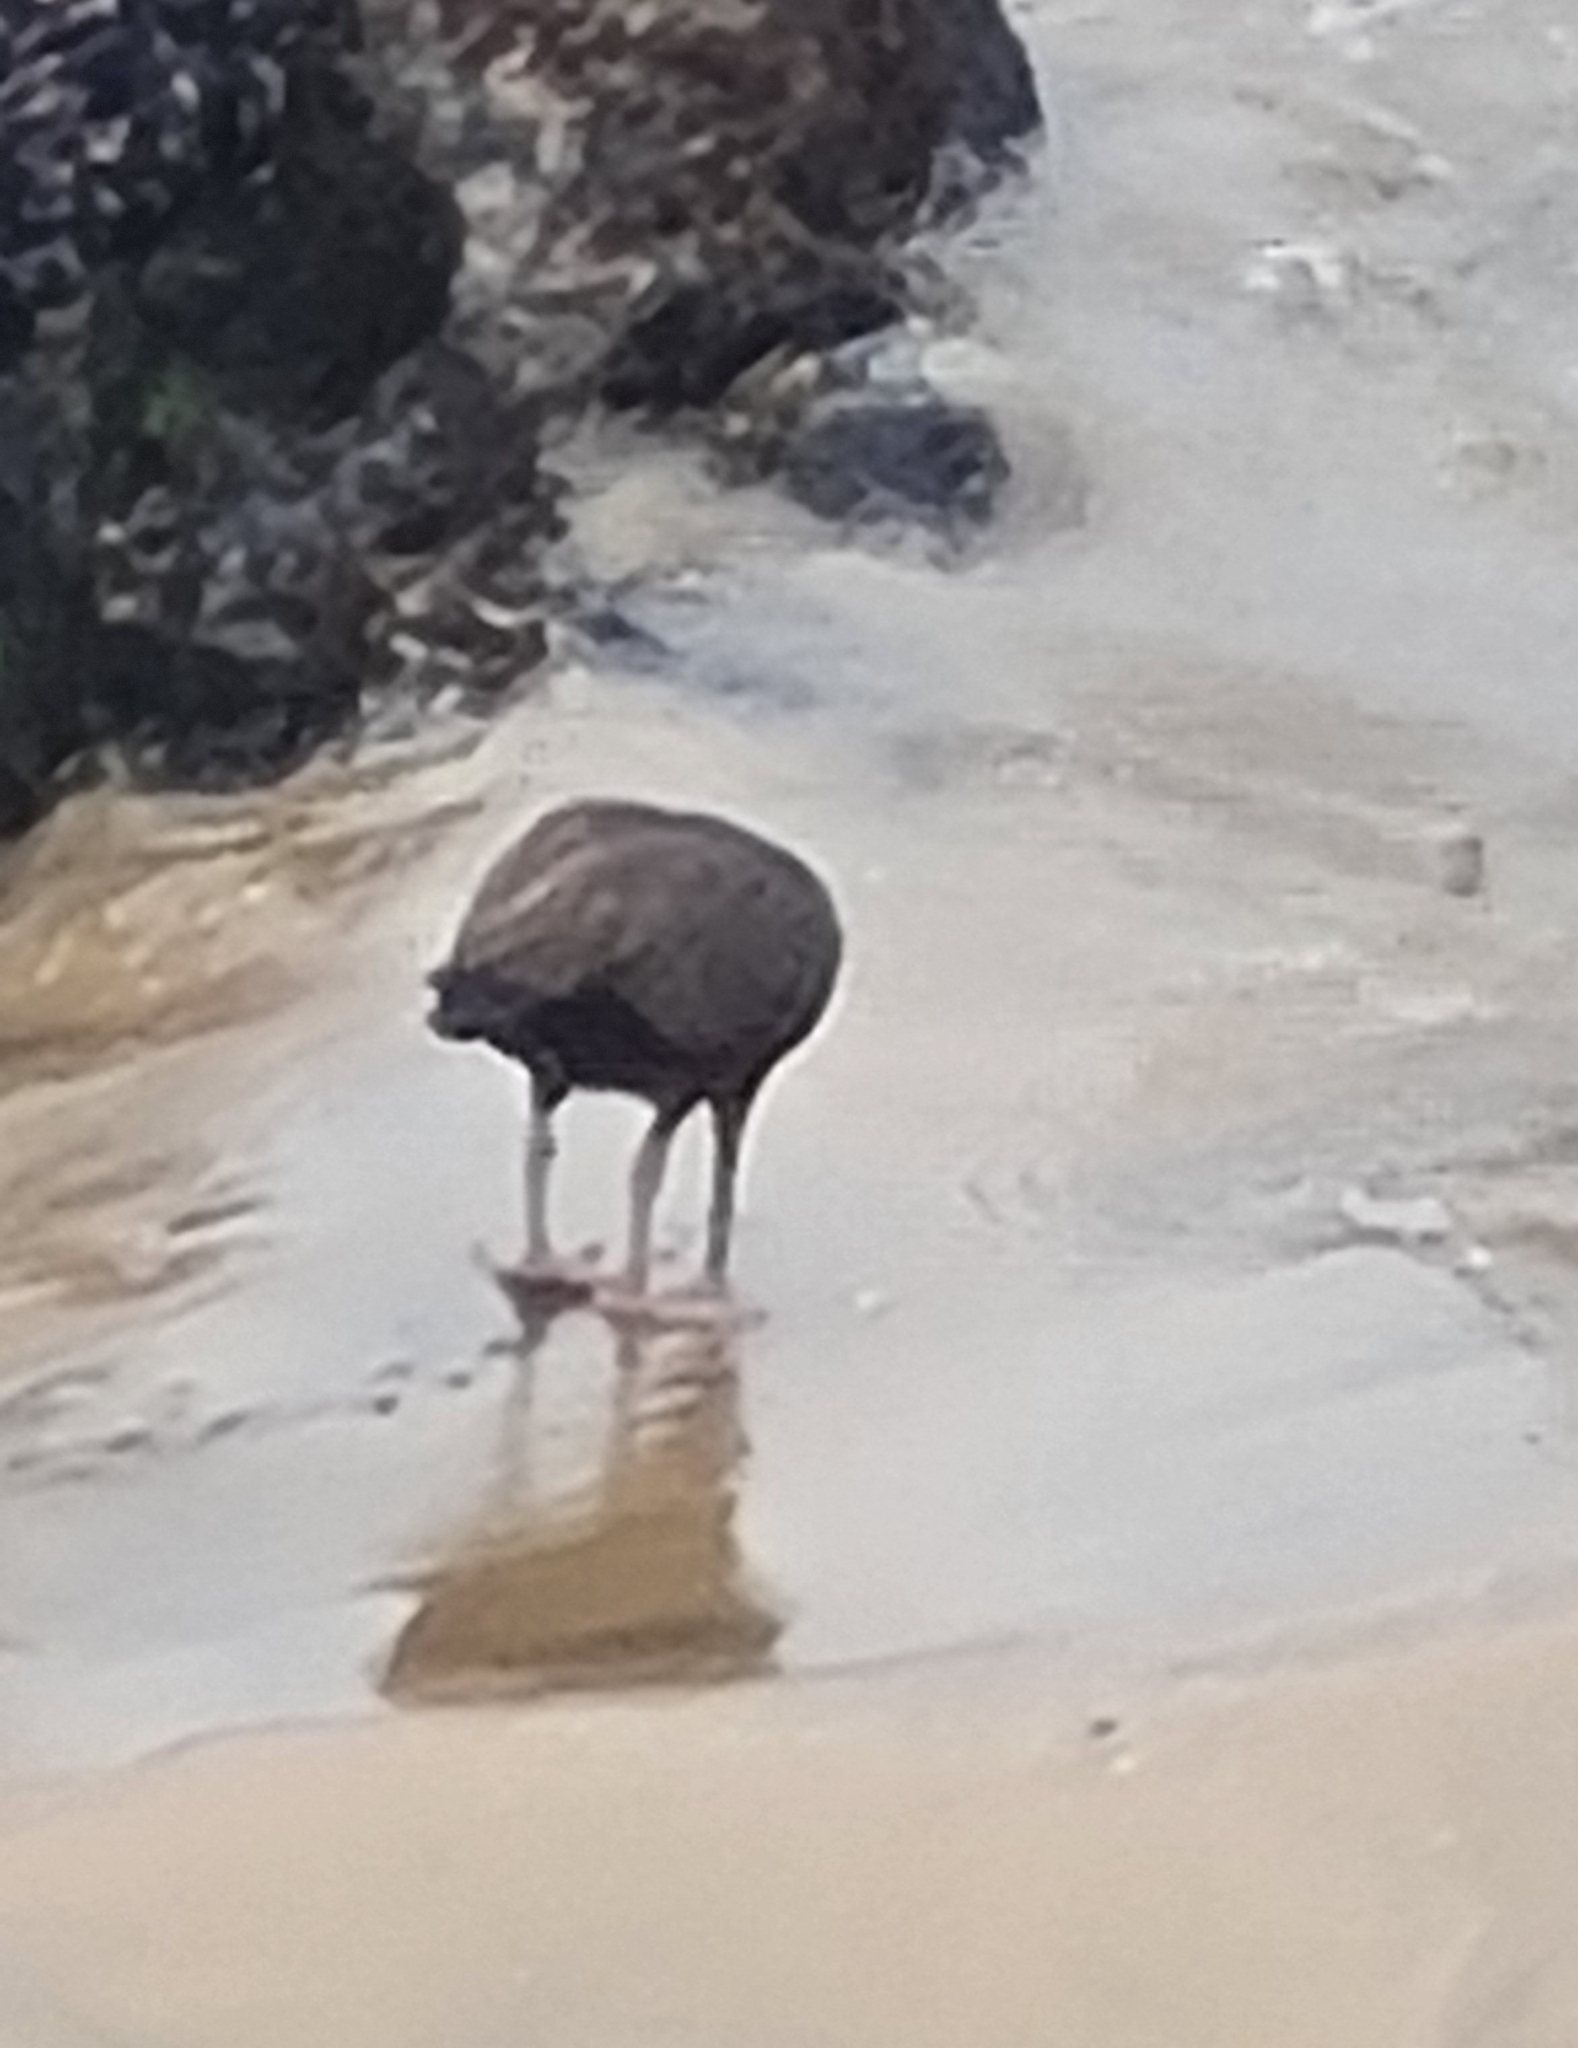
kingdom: Animalia
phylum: Chordata
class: Aves
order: Charadriiformes
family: Haematopodidae
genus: Haematopus
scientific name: Haematopus ater
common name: Blackish oystercatcher
